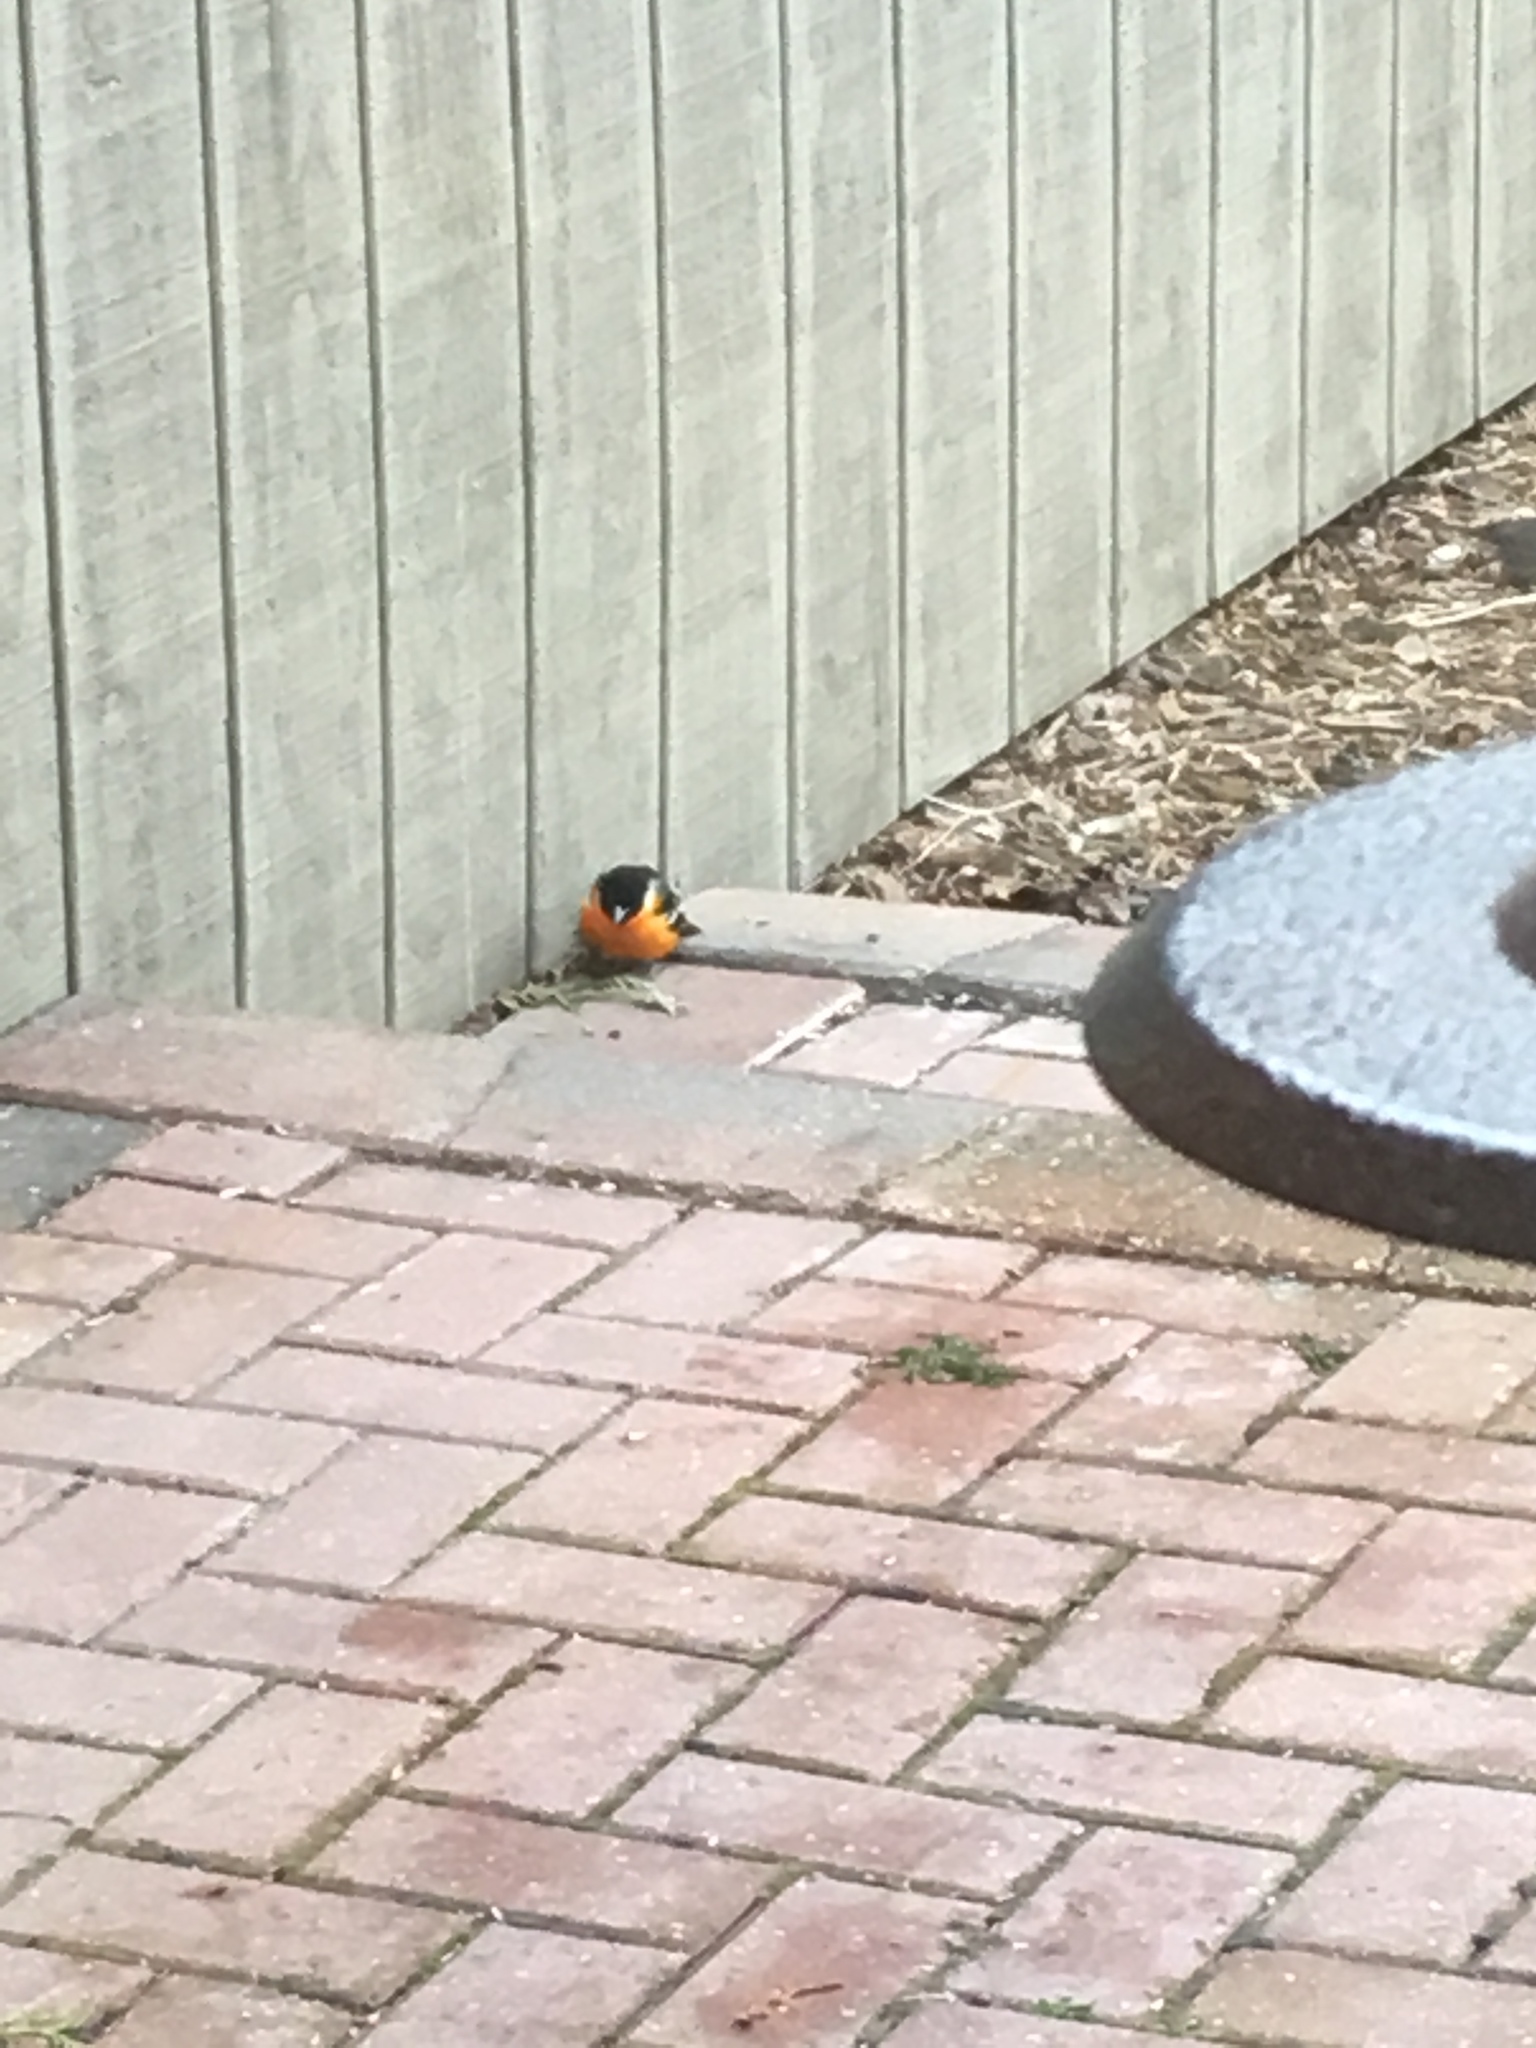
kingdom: Animalia
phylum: Chordata
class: Aves
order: Passeriformes
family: Icteridae
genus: Icterus
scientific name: Icterus galbula
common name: Baltimore oriole
